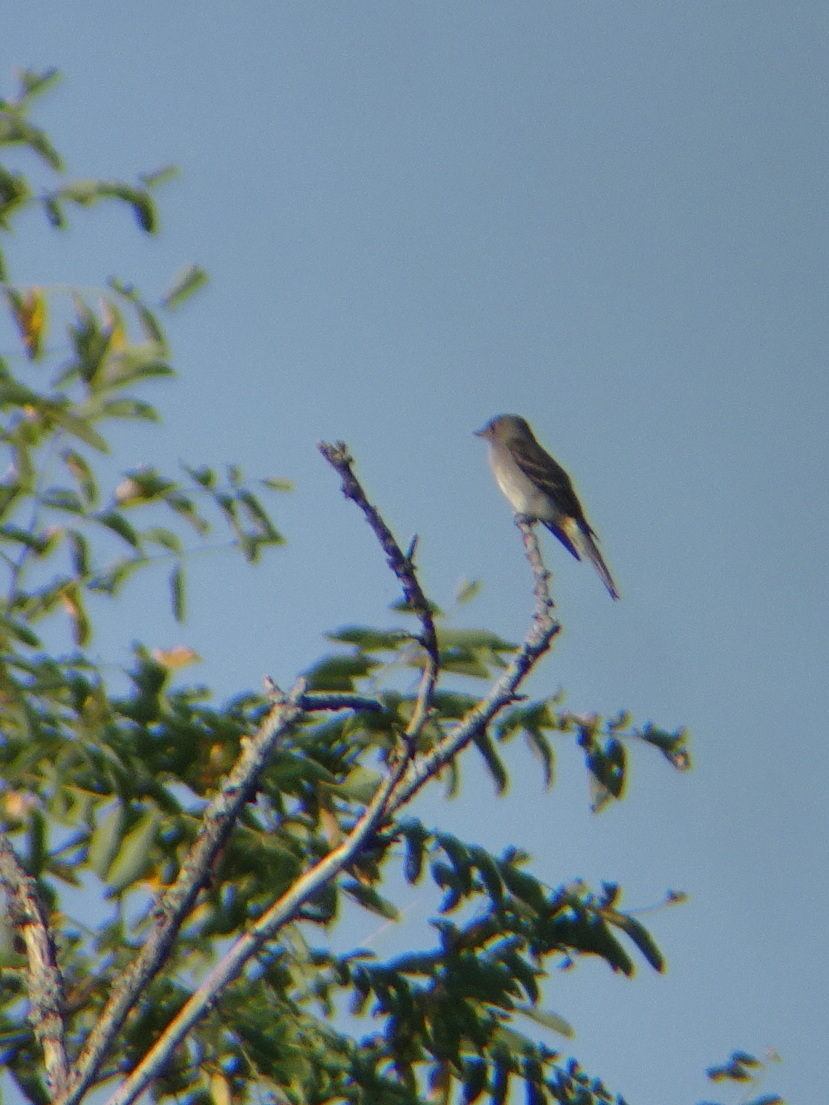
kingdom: Animalia
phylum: Chordata
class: Aves
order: Passeriformes
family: Tyrannidae
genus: Contopus
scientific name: Contopus virens
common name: Eastern wood-pewee
